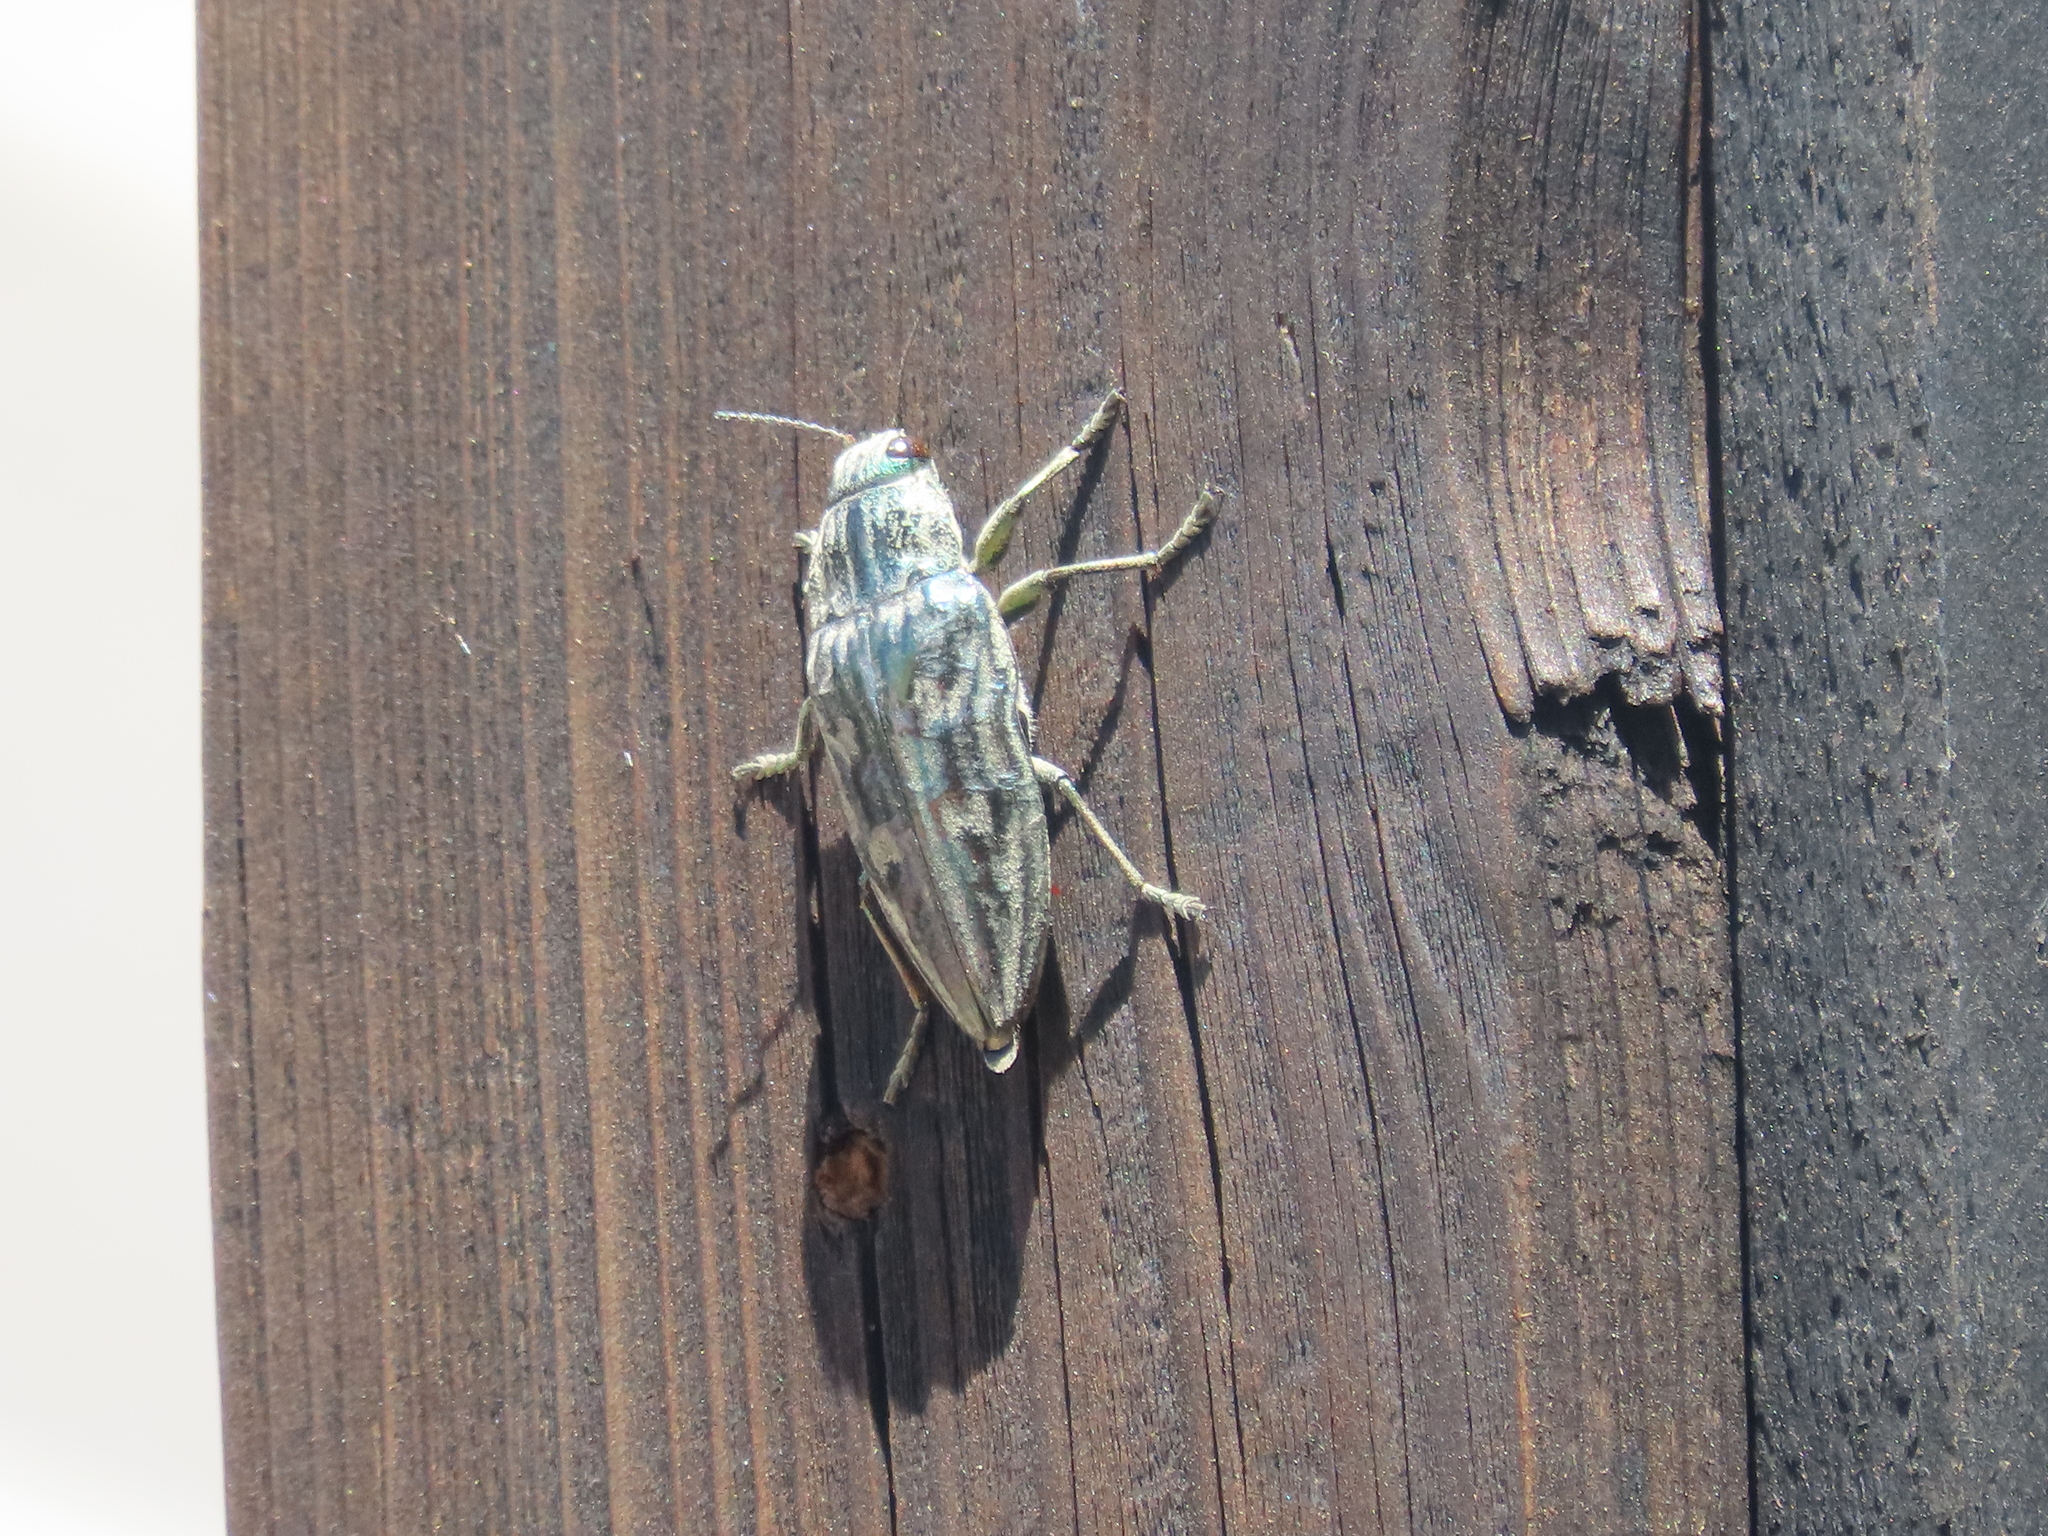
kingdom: Animalia
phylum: Arthropoda
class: Insecta
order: Coleoptera
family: Buprestidae
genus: Chalcophora
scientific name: Chalcophora mariana
